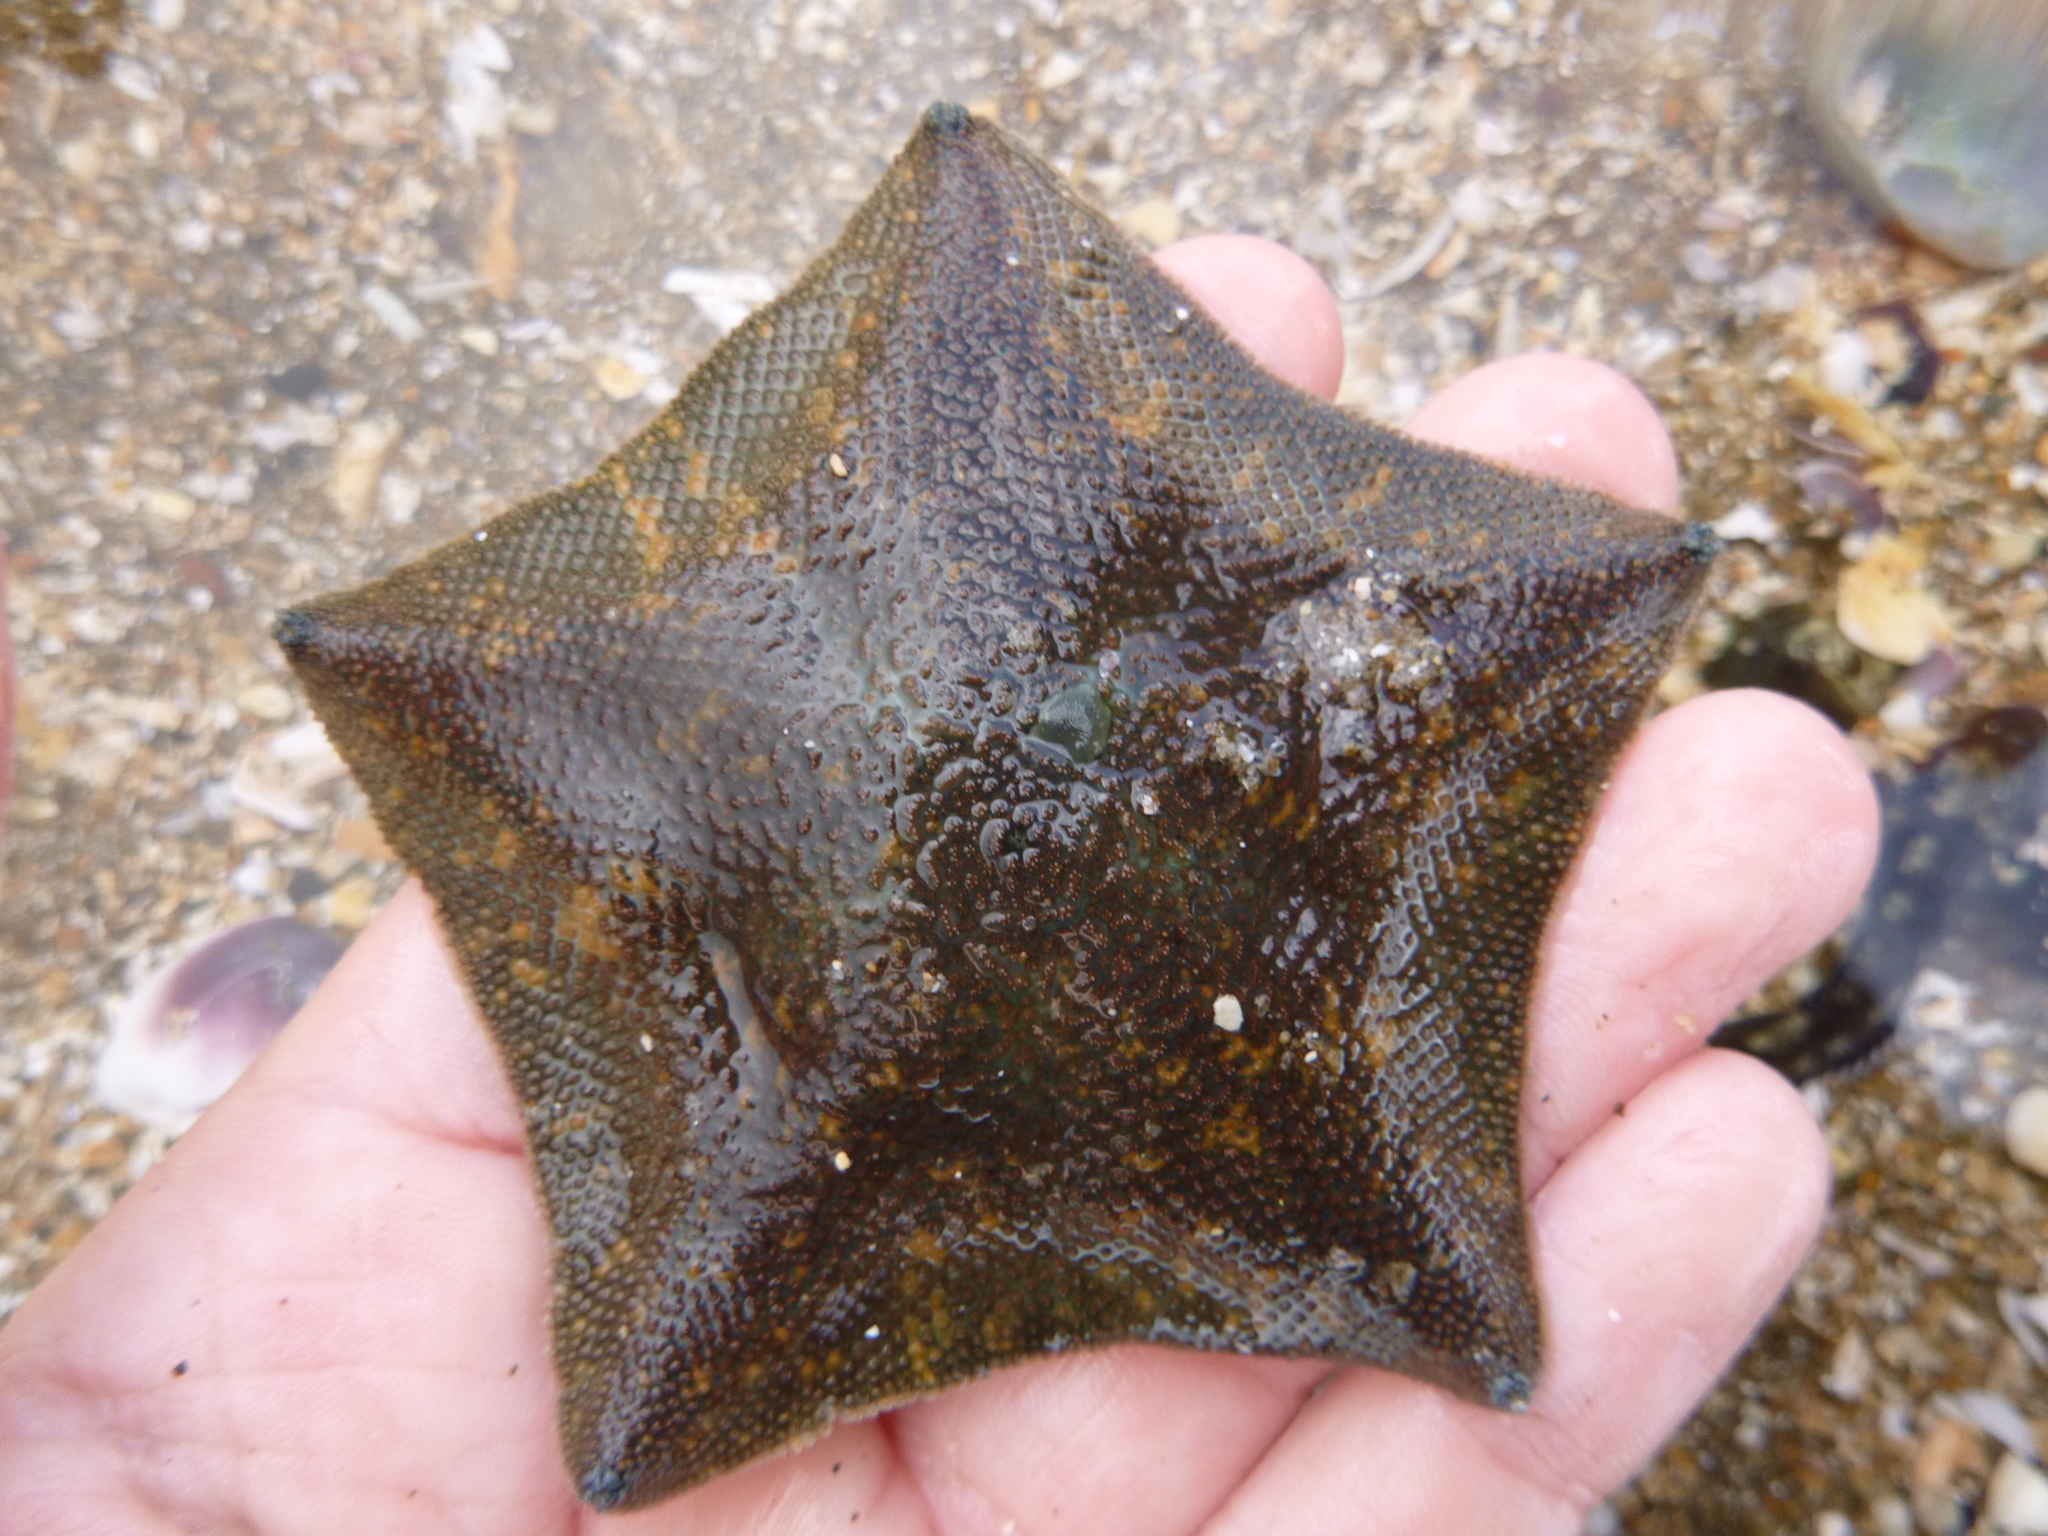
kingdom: Animalia
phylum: Echinodermata
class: Asteroidea
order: Valvatida
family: Asterinidae
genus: Patiriella
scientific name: Patiriella regularis
